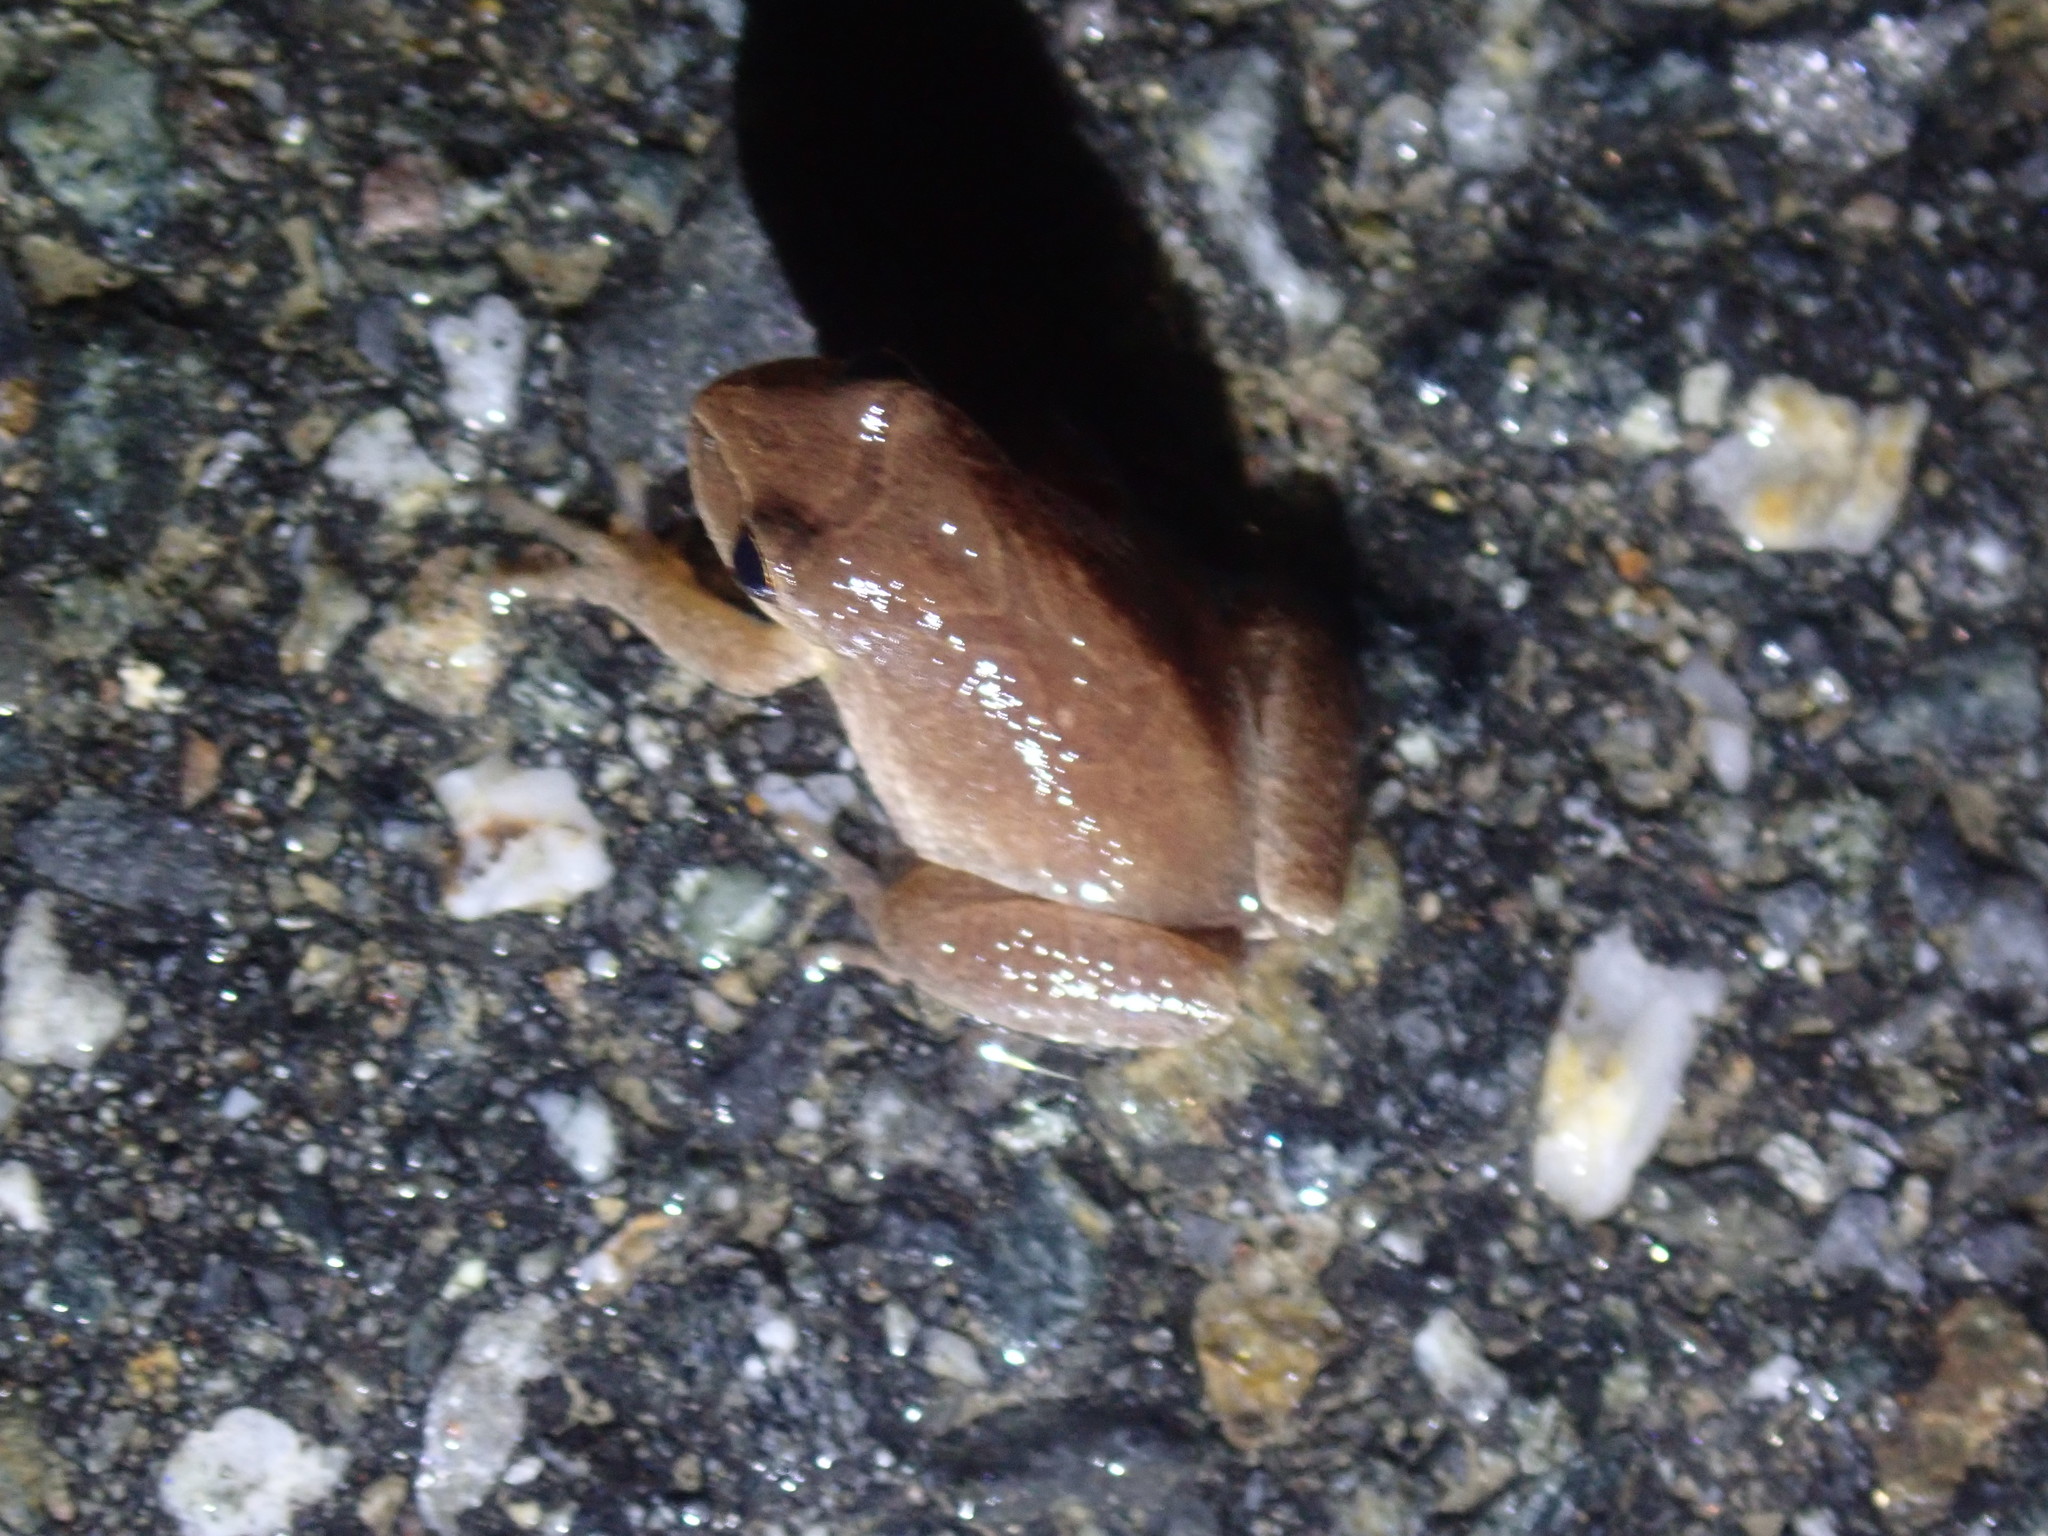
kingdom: Animalia
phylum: Chordata
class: Amphibia
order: Anura
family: Hylidae
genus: Pseudacris
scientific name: Pseudacris crucifer
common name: Spring peeper
